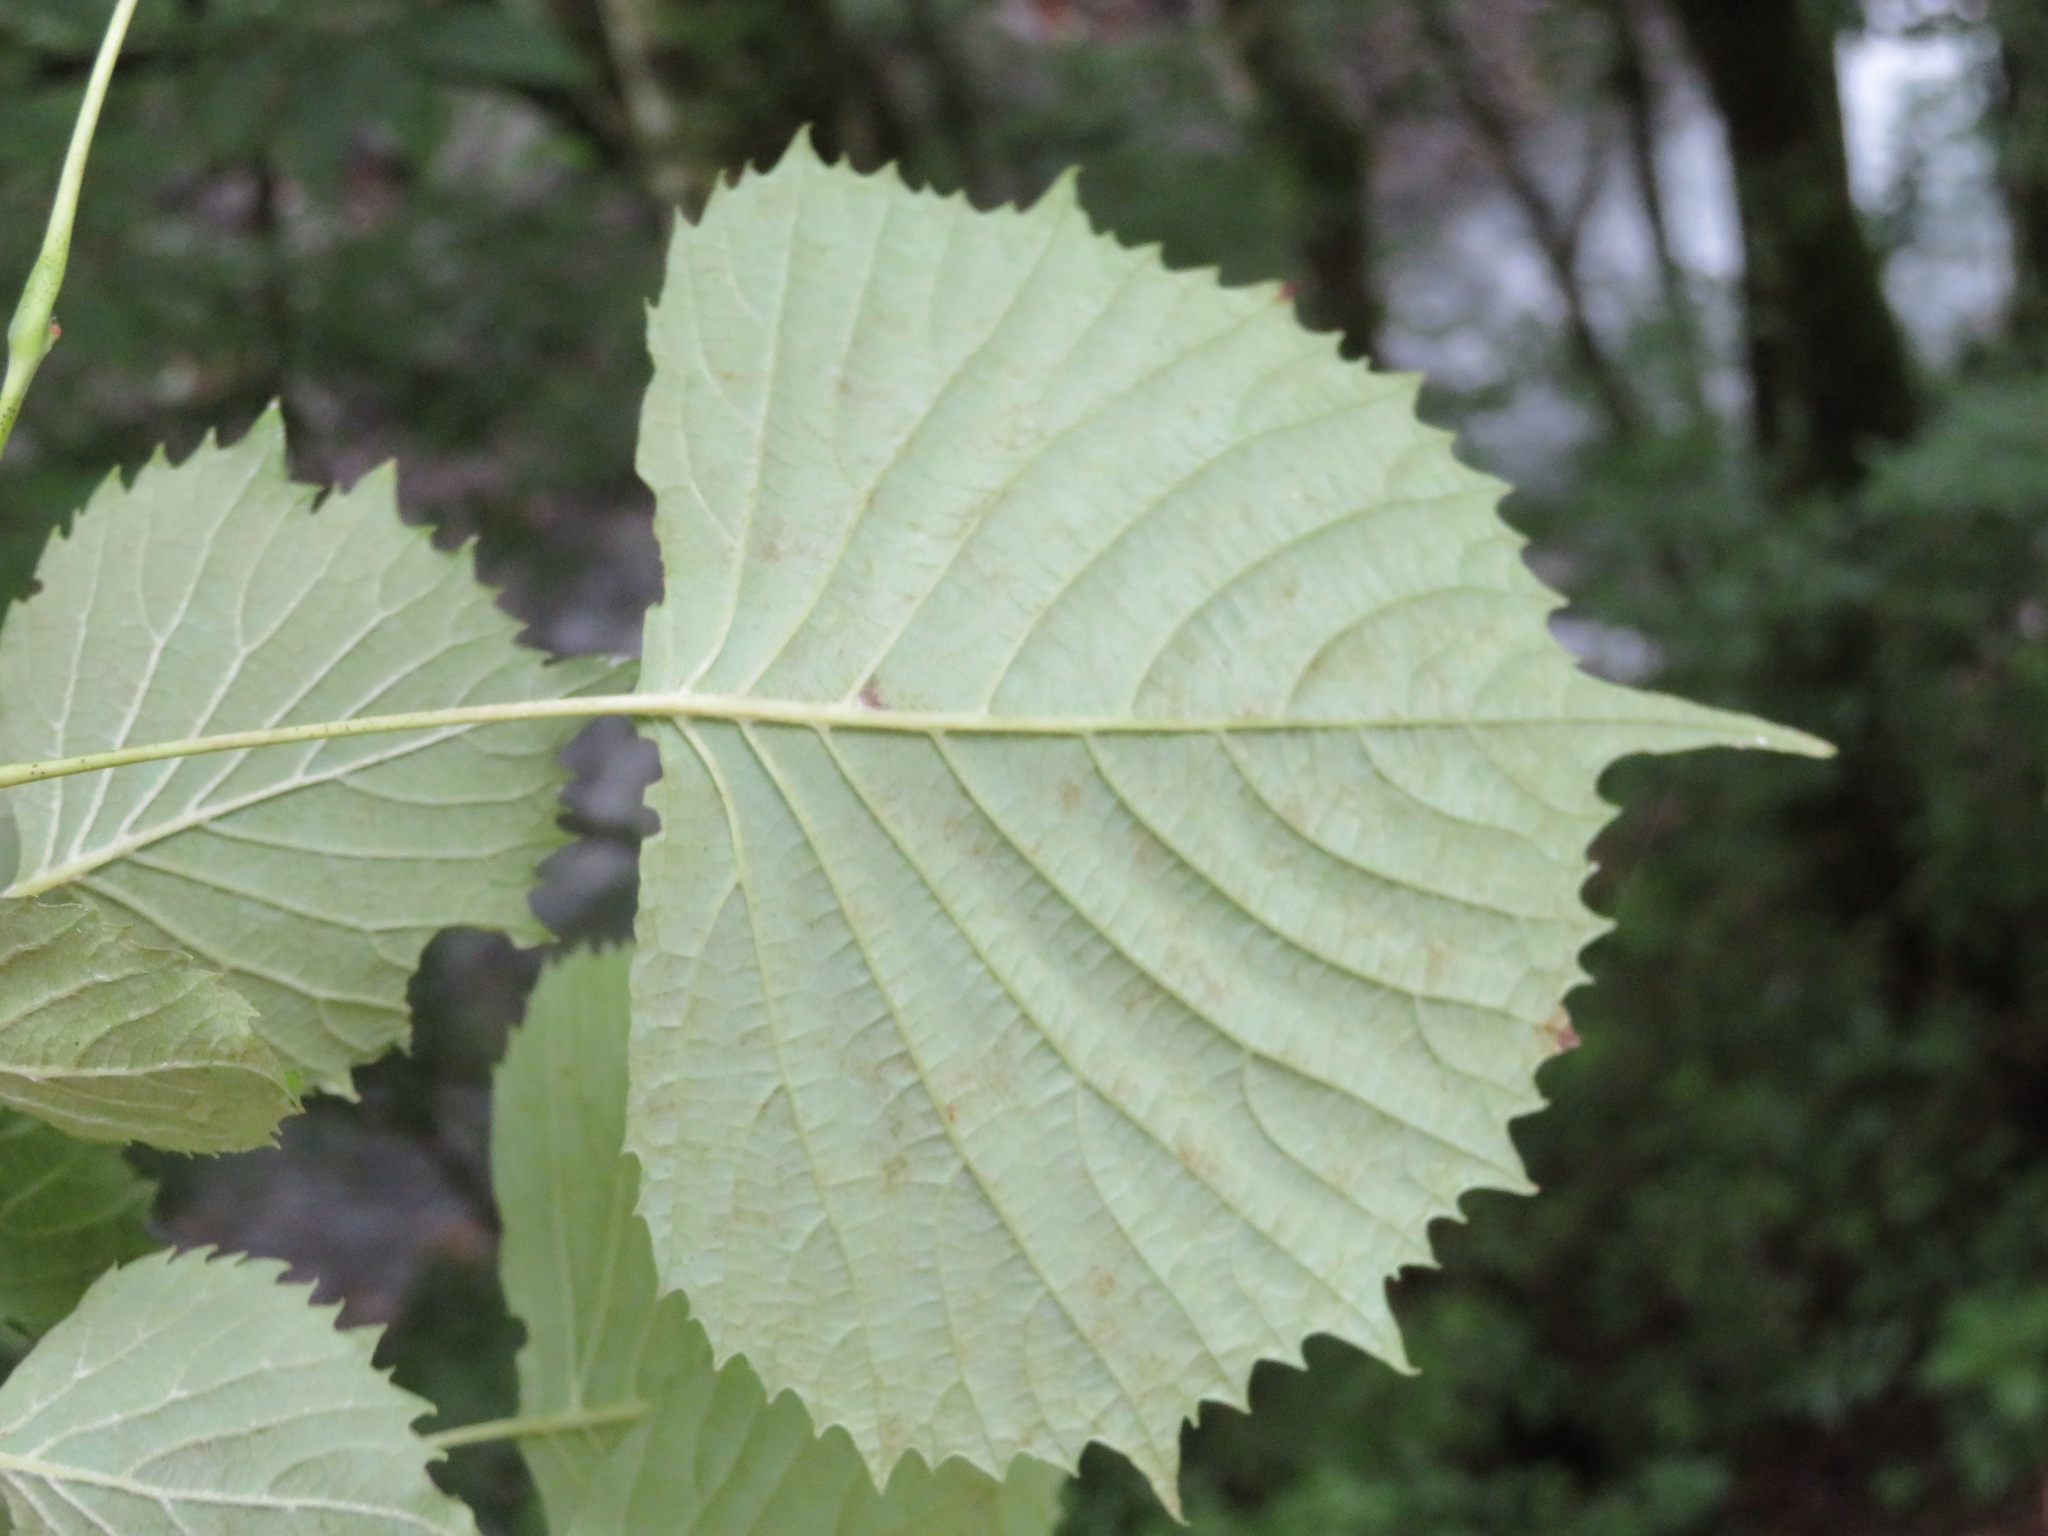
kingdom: Plantae
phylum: Tracheophyta
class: Magnoliopsida
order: Ranunculales
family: Eupteleaceae
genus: Euptelea
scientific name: Euptelea polyandra
